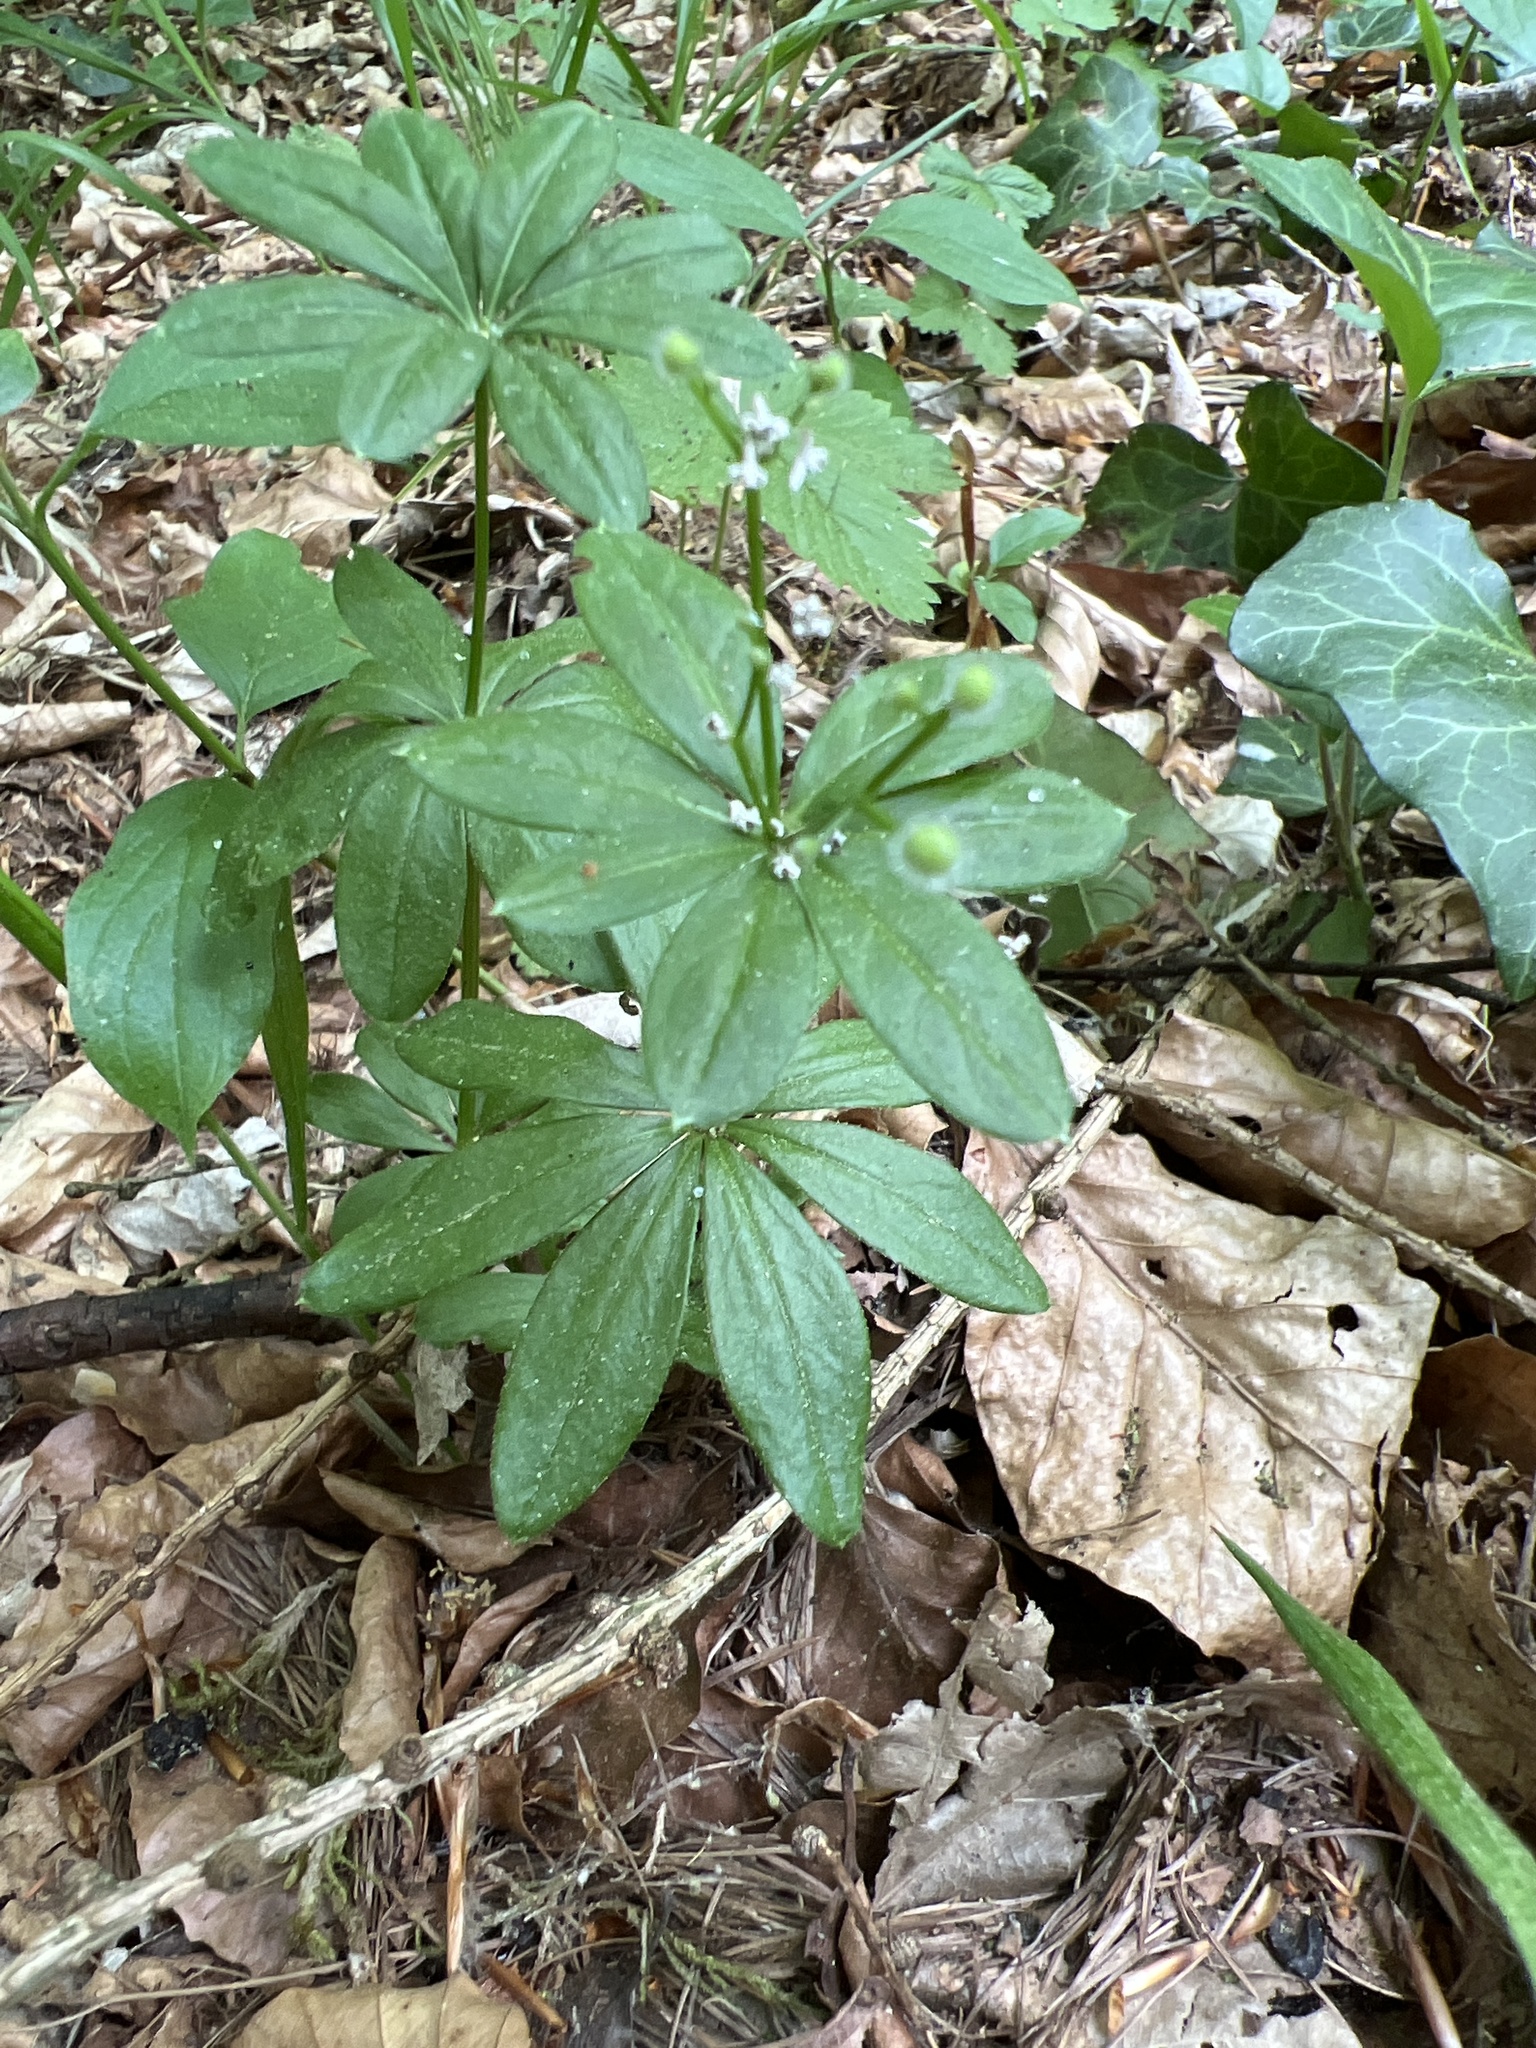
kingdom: Plantae
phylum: Tracheophyta
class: Magnoliopsida
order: Gentianales
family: Rubiaceae
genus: Galium
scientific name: Galium odoratum
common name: Sweet woodruff
